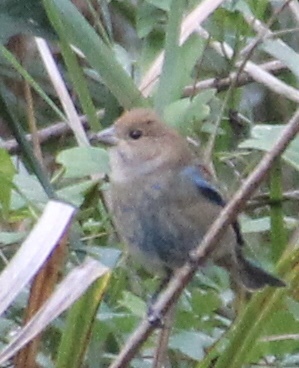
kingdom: Animalia
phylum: Chordata
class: Aves
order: Passeriformes
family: Cardinalidae
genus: Passerina
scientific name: Passerina cyanea
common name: Indigo bunting
